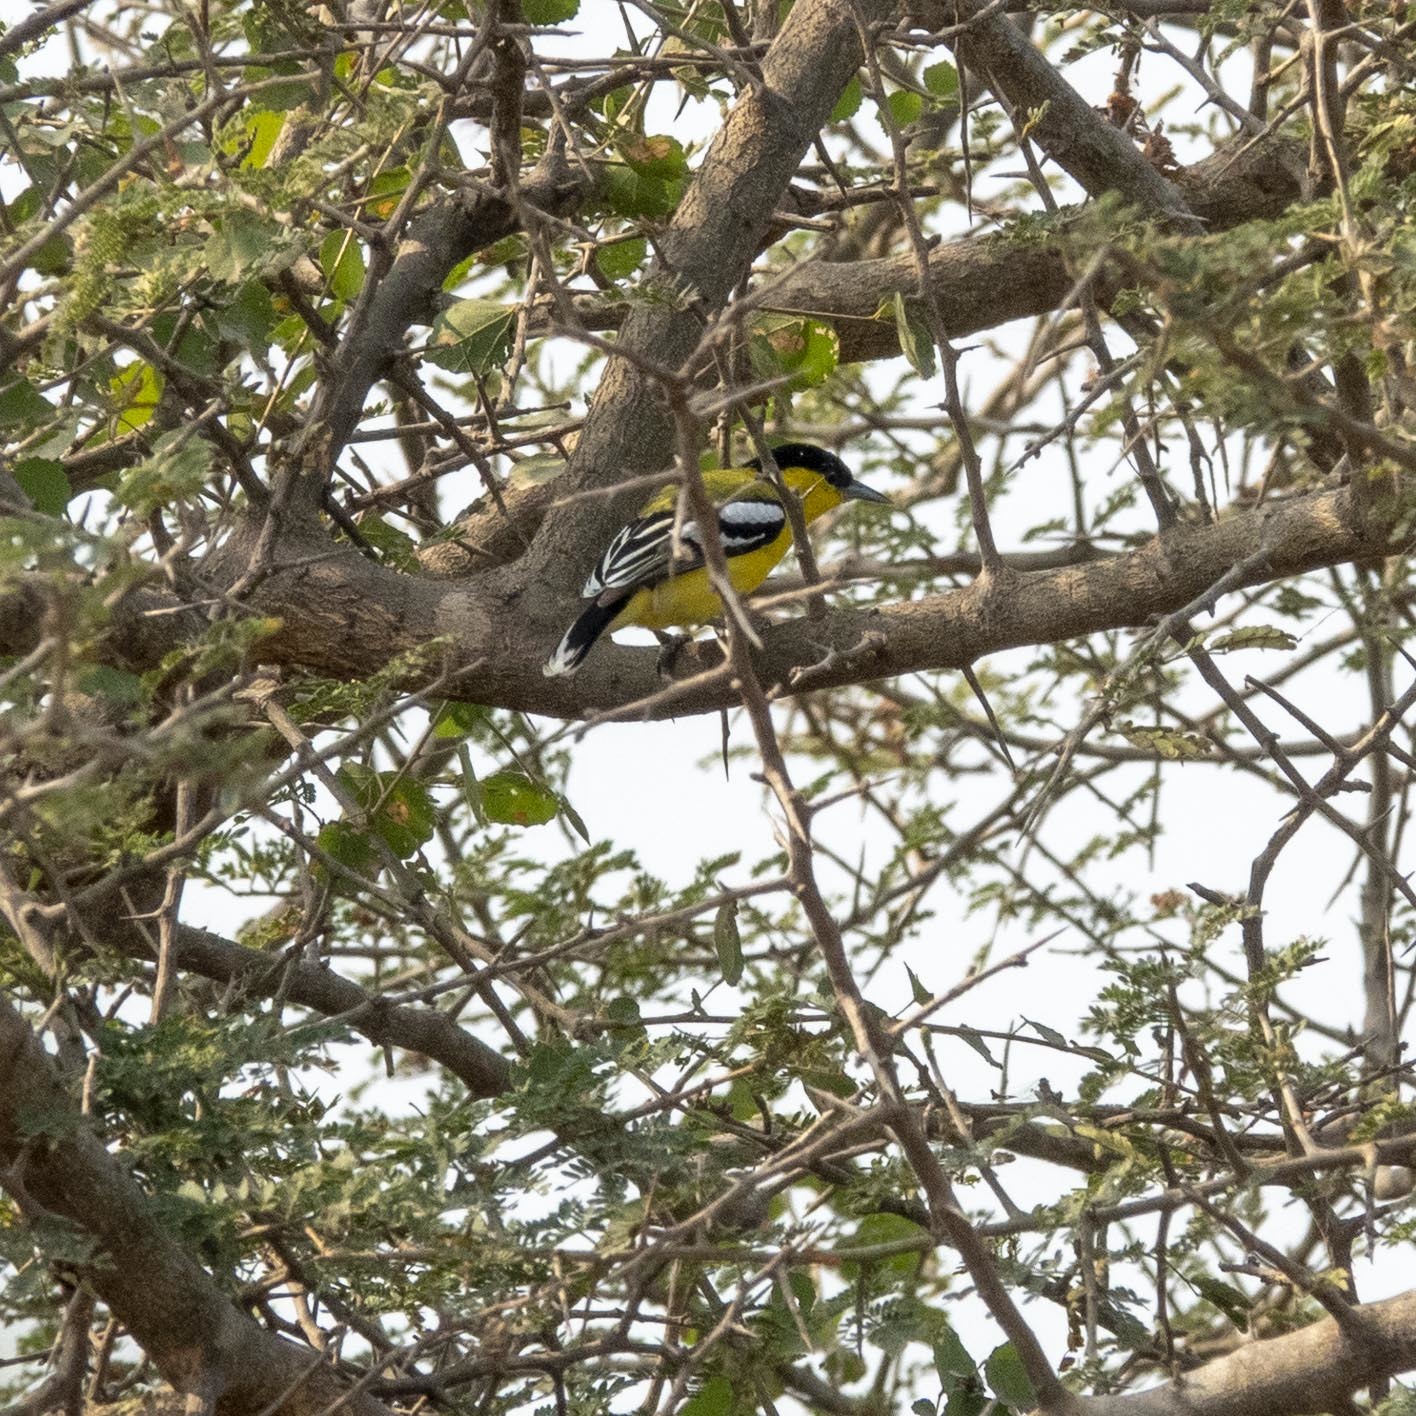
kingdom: Animalia
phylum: Chordata
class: Aves
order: Passeriformes
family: Aegithinidae
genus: Aegithina
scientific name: Aegithina nigrolutea
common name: Marshall's iora
